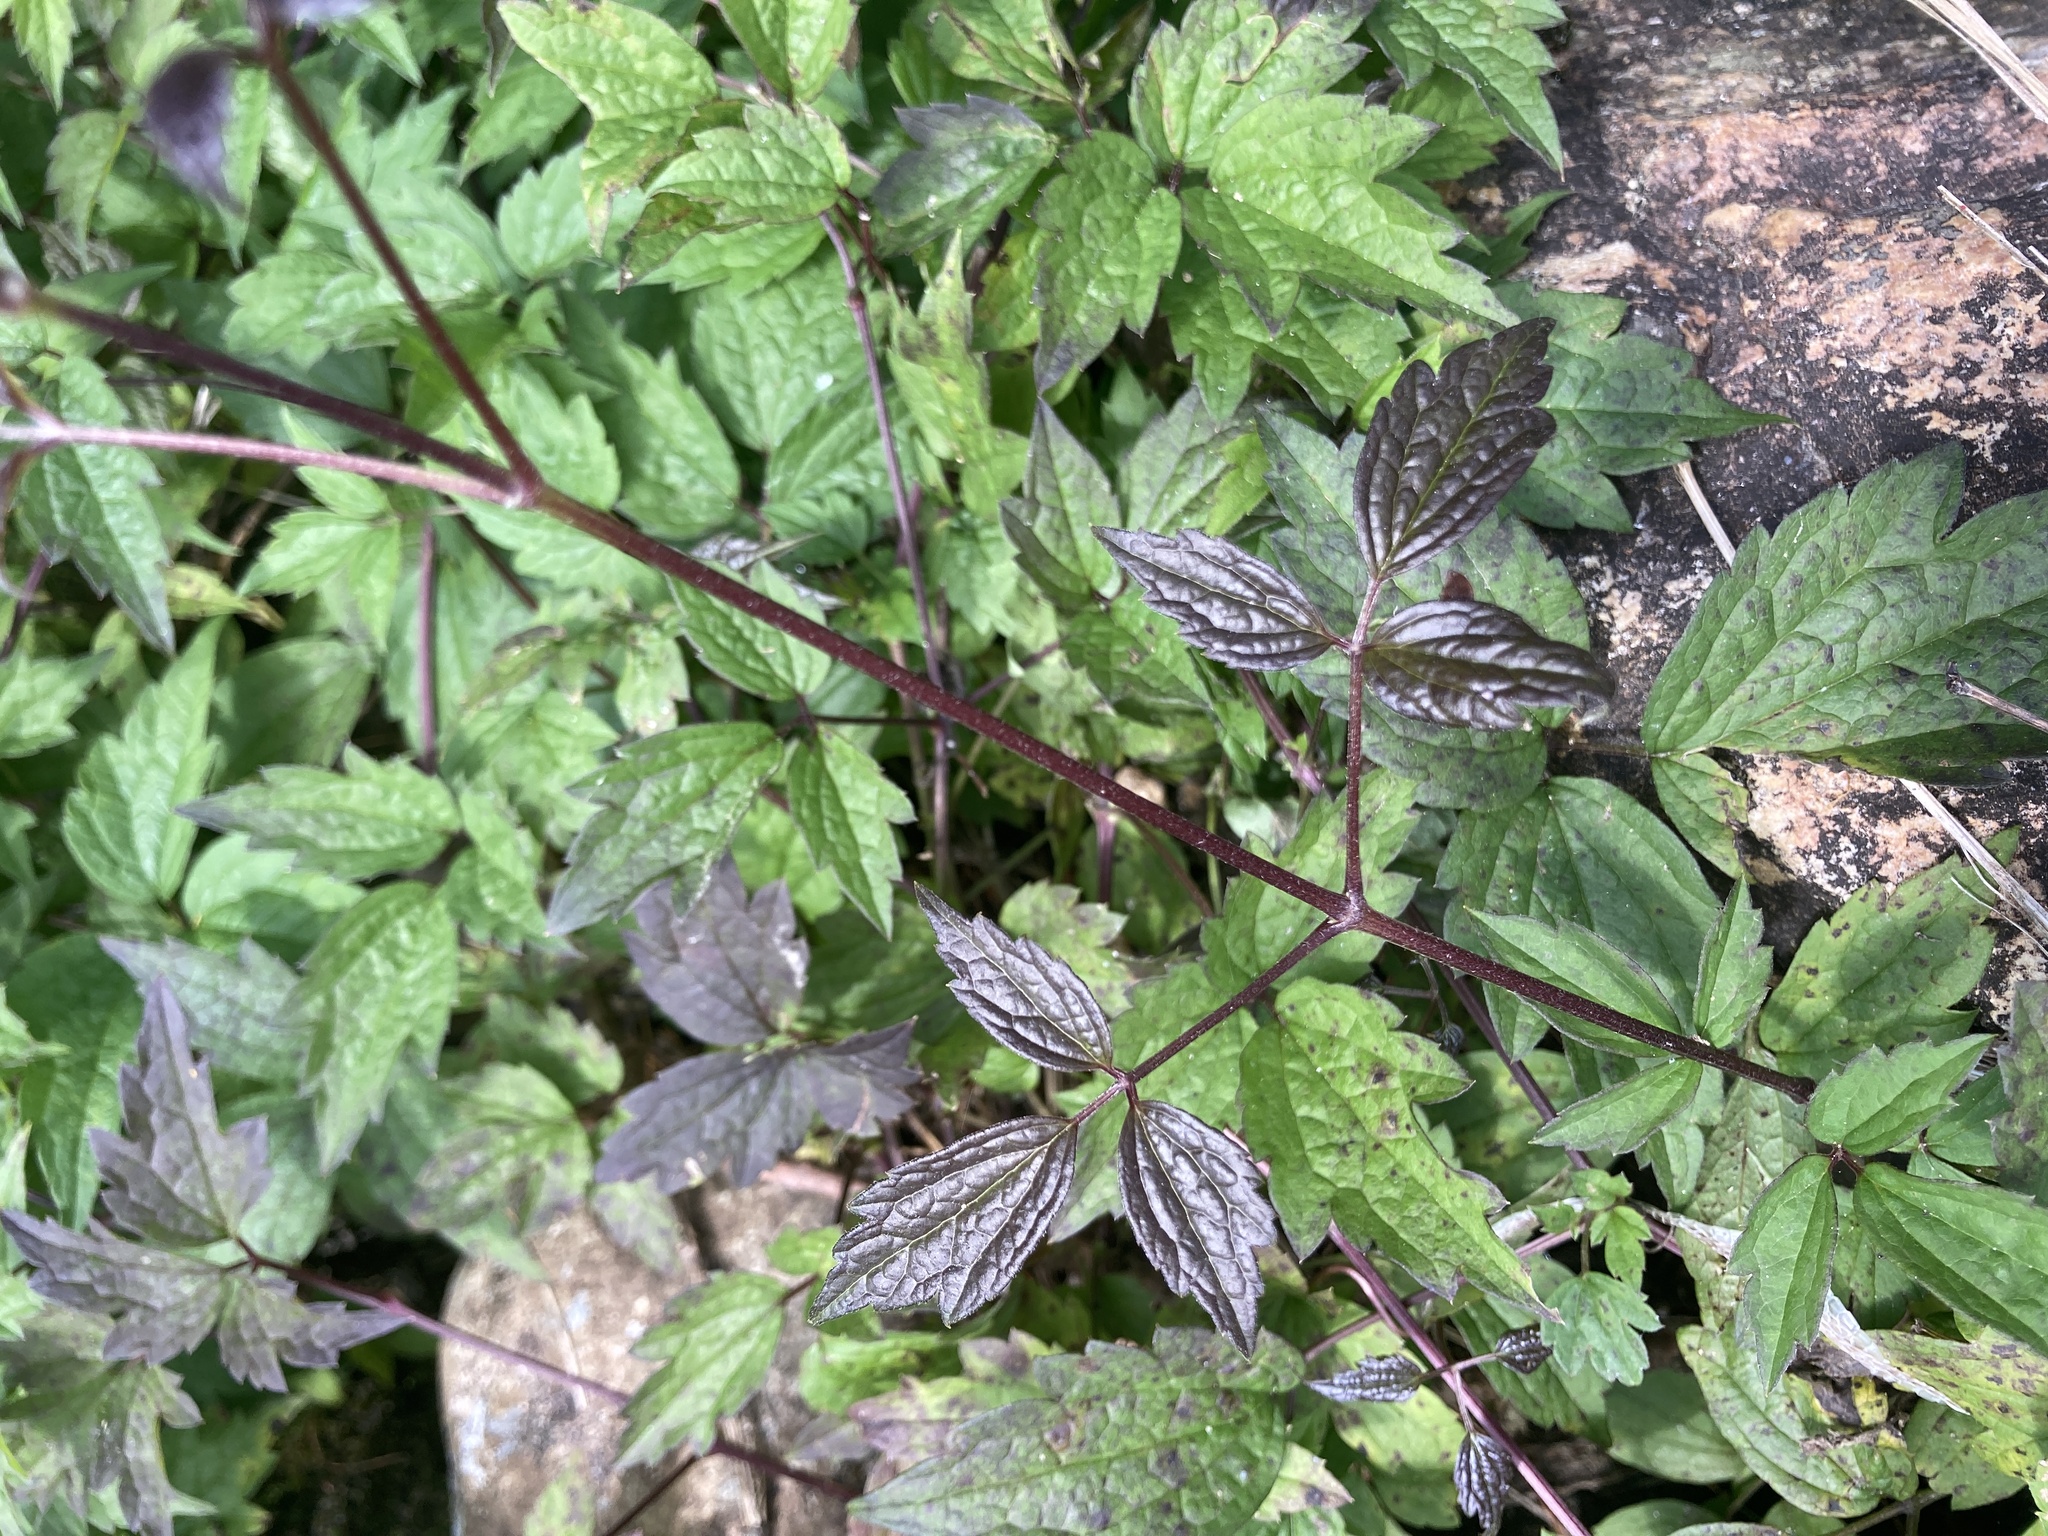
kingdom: Plantae
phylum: Tracheophyta
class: Magnoliopsida
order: Ranunculales
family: Ranunculaceae
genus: Clematis
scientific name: Clematis virginiana
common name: Virgin's-bower
